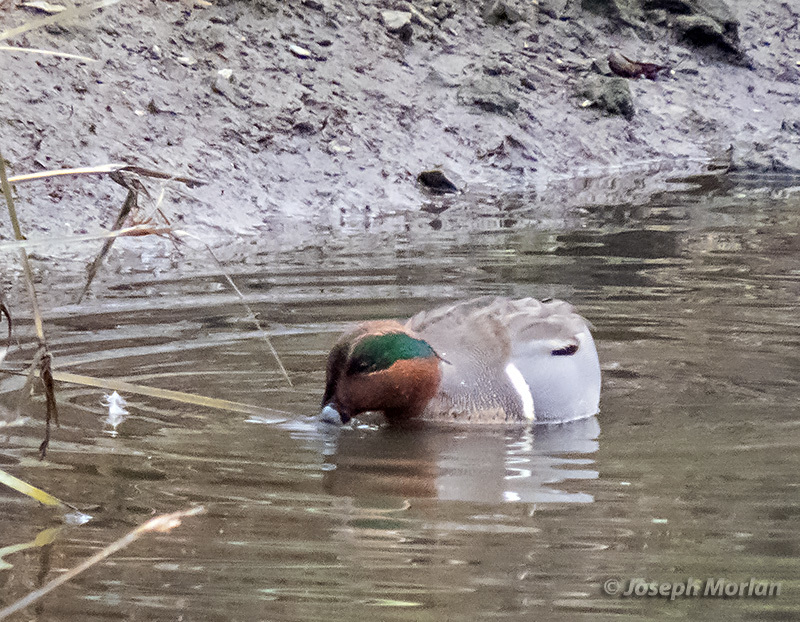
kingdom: Animalia
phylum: Chordata
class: Aves
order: Anseriformes
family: Anatidae
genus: Anas
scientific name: Anas crecca
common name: Eurasian teal
